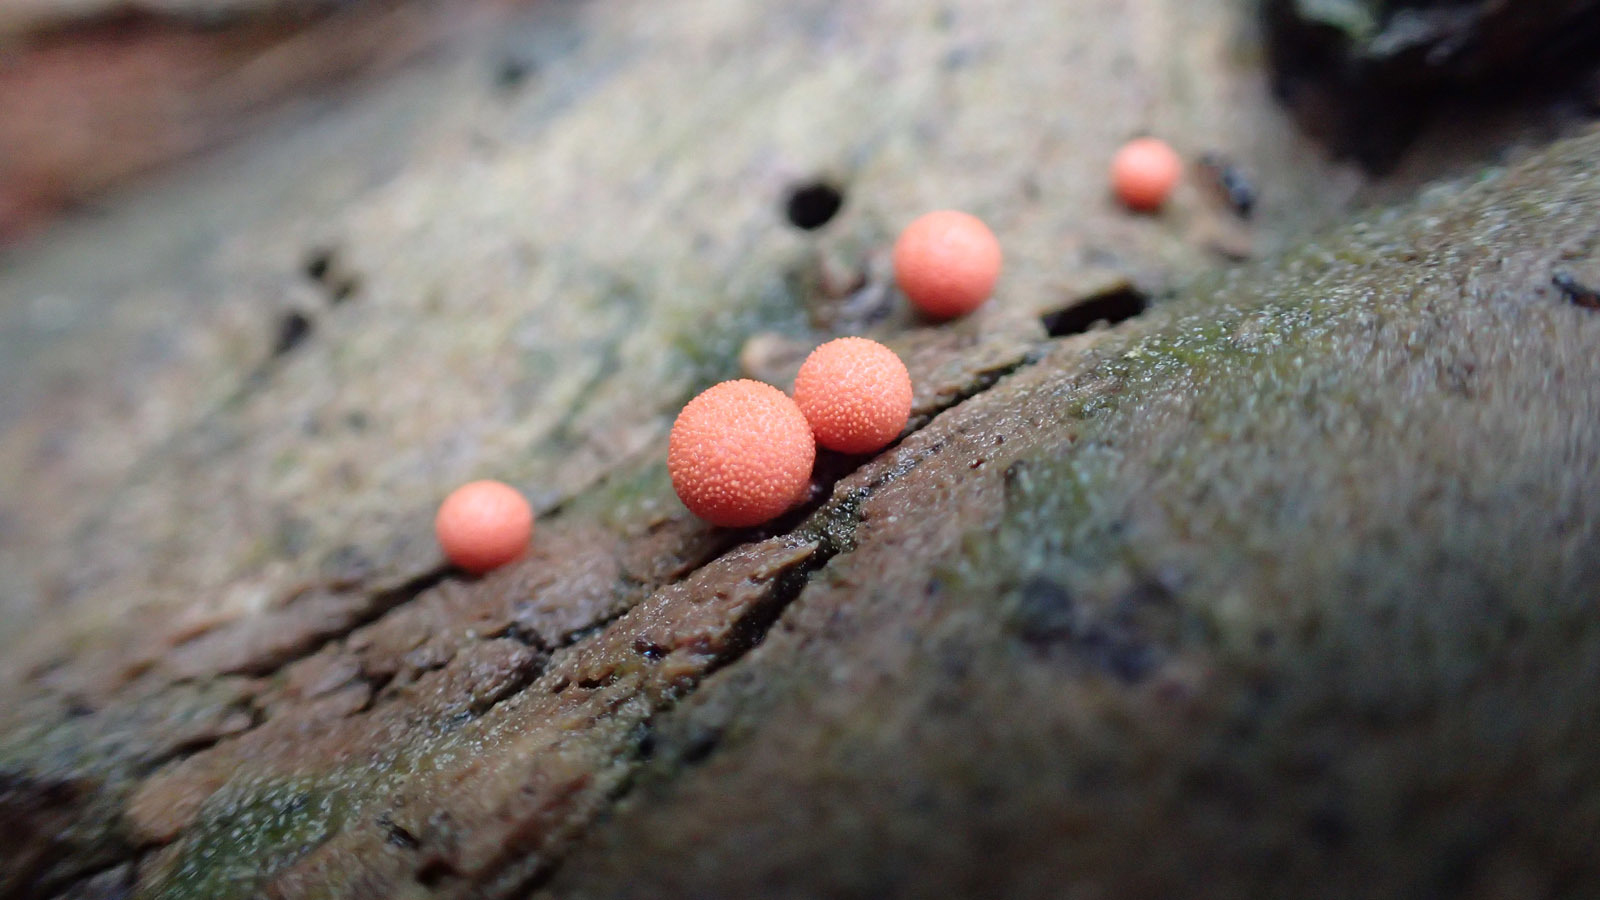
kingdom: Protozoa
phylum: Mycetozoa
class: Myxomycetes
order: Cribrariales
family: Tubiferaceae
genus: Lycogala
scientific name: Lycogala epidendrum
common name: Wolf's milk
